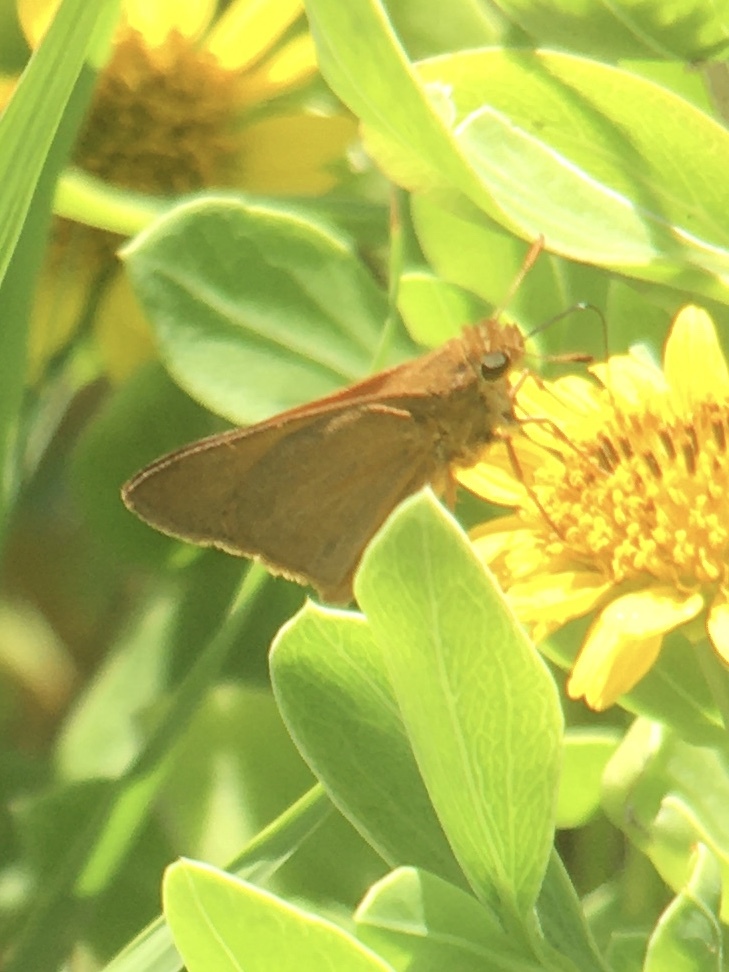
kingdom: Animalia
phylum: Arthropoda
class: Insecta
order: Lepidoptera
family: Hesperiidae
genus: Euphyes
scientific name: Euphyes pilatka
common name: Palatka skipper
